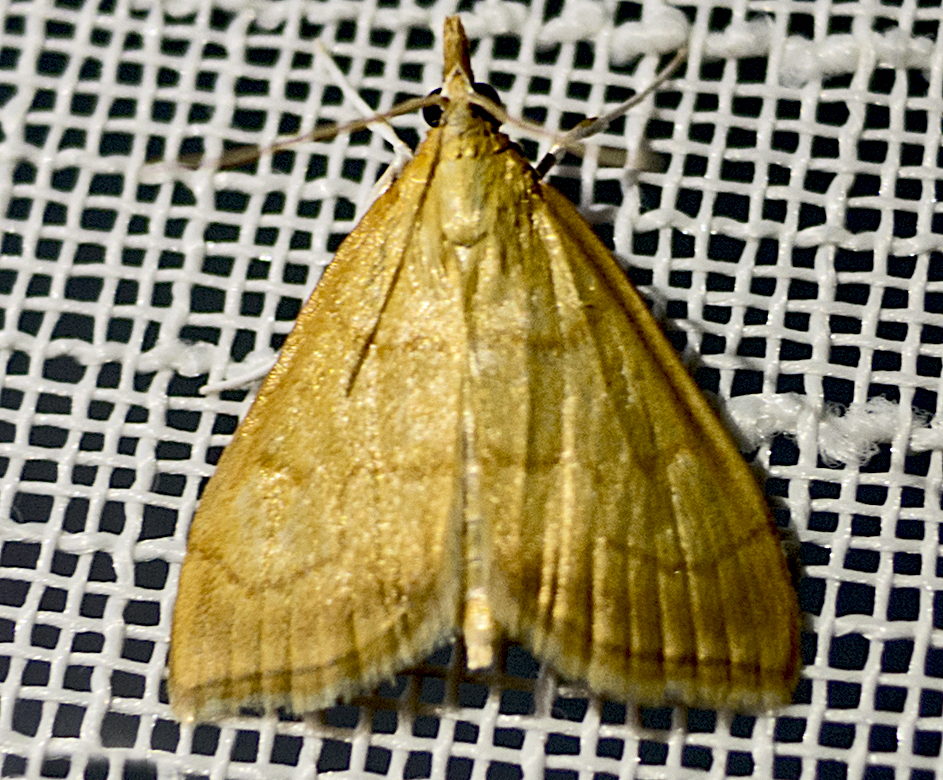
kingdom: Animalia
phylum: Arthropoda
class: Insecta
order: Lepidoptera
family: Crambidae
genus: Anania
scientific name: Anania crocealis
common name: Ochreous pearl
